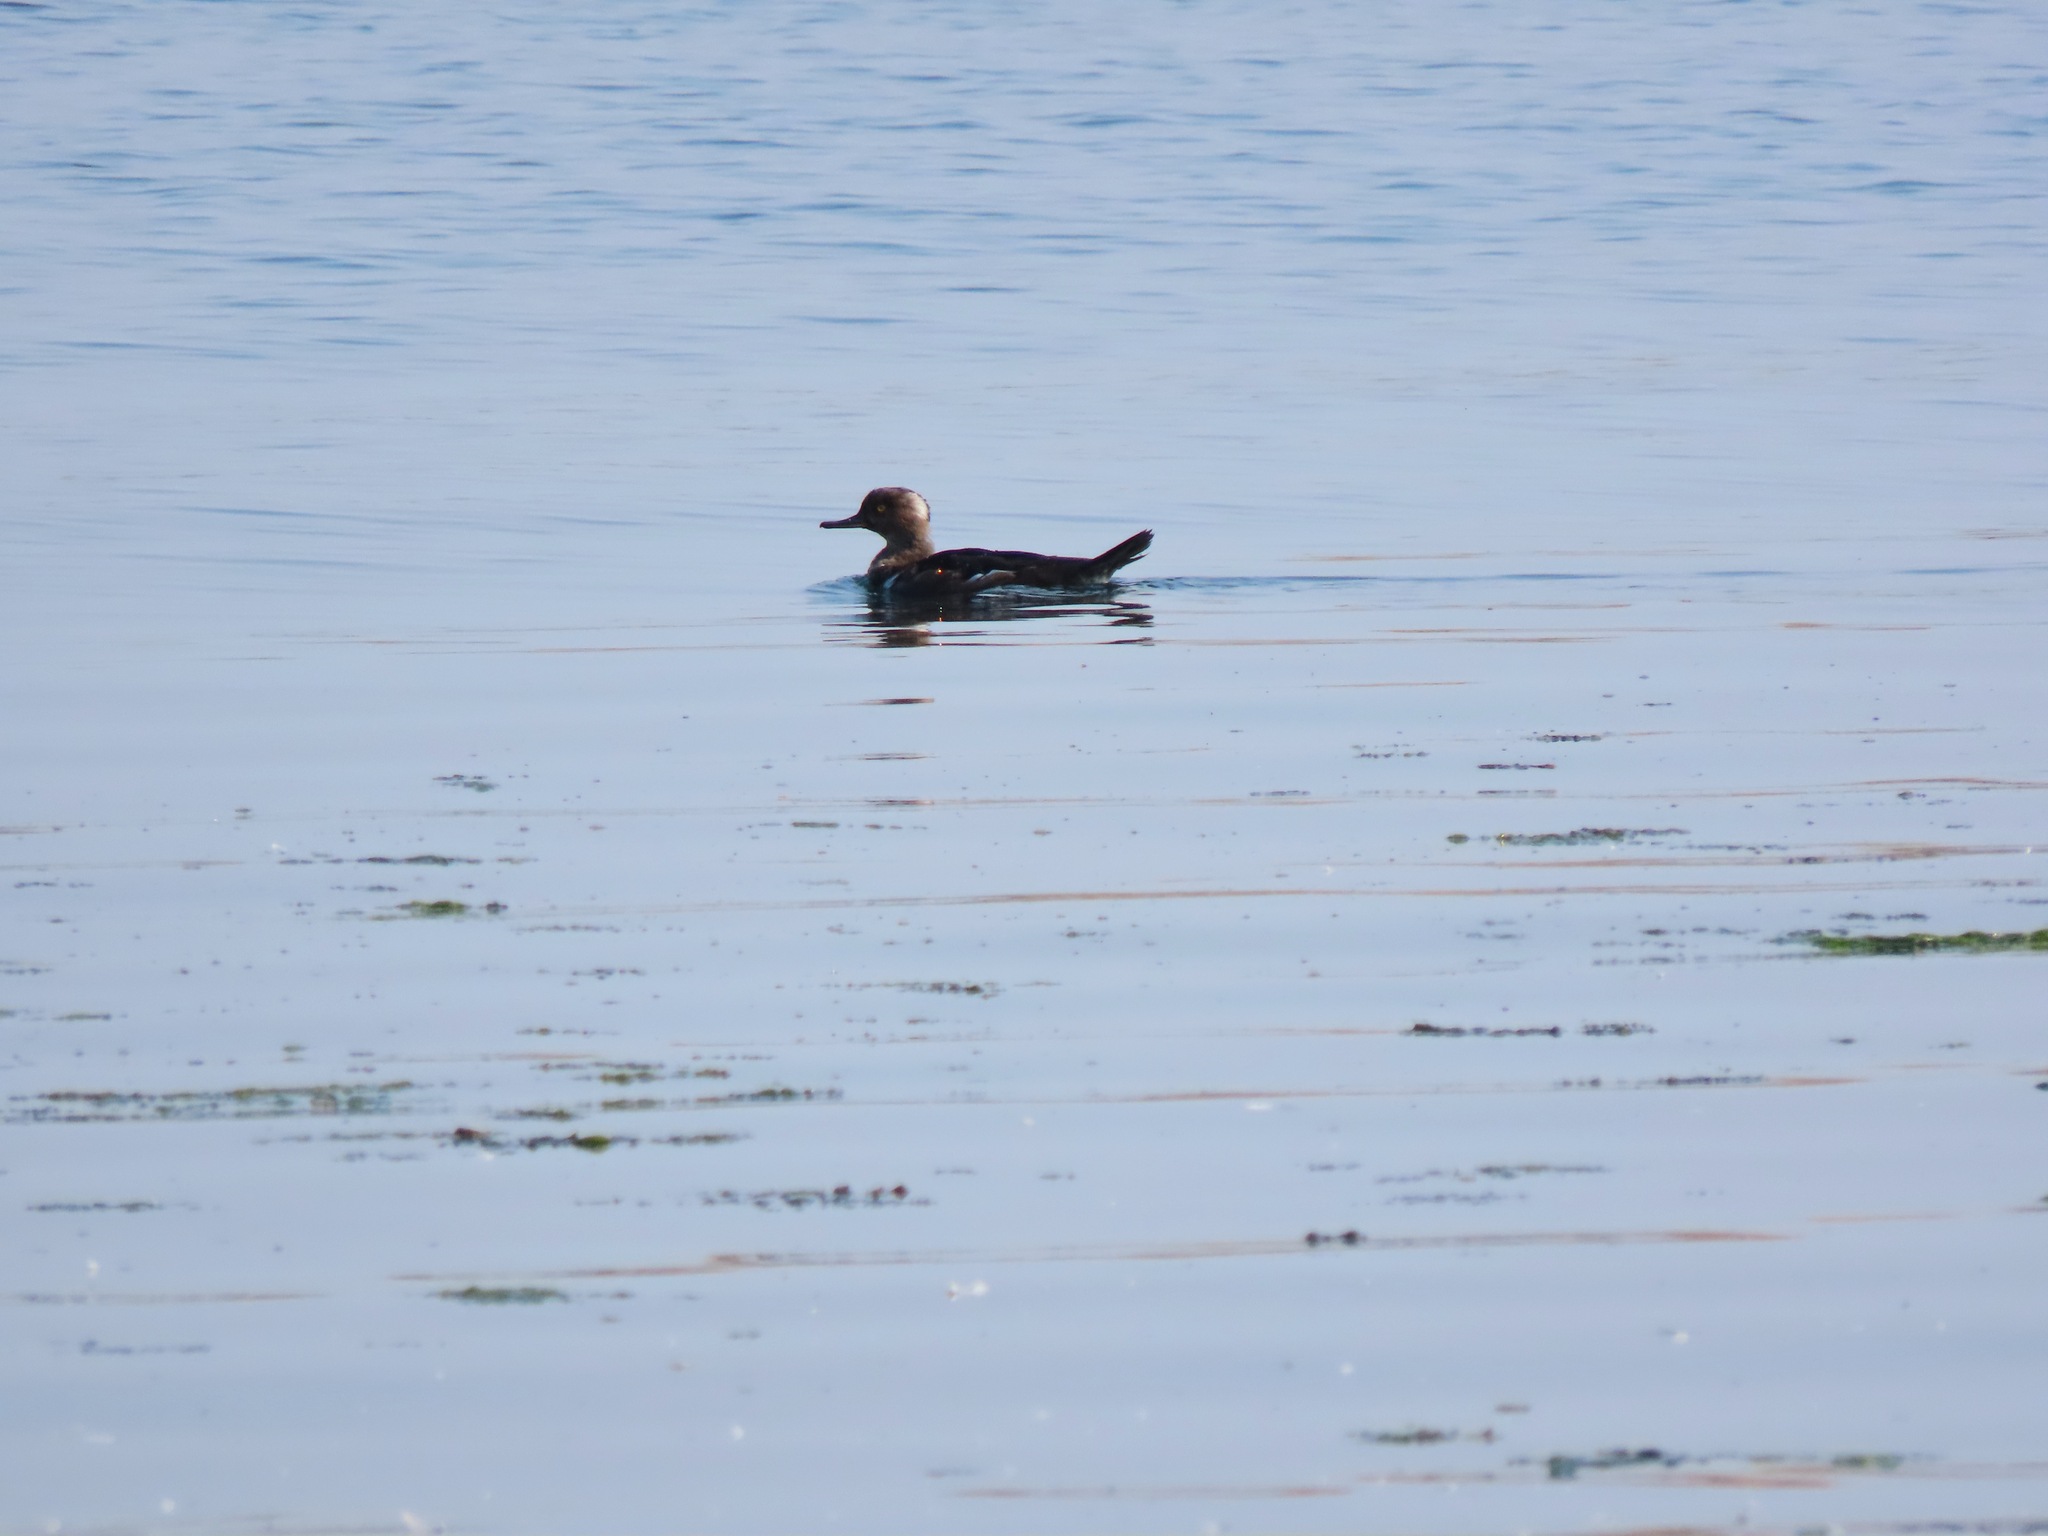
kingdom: Animalia
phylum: Chordata
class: Aves
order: Anseriformes
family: Anatidae
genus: Lophodytes
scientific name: Lophodytes cucullatus
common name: Hooded merganser
